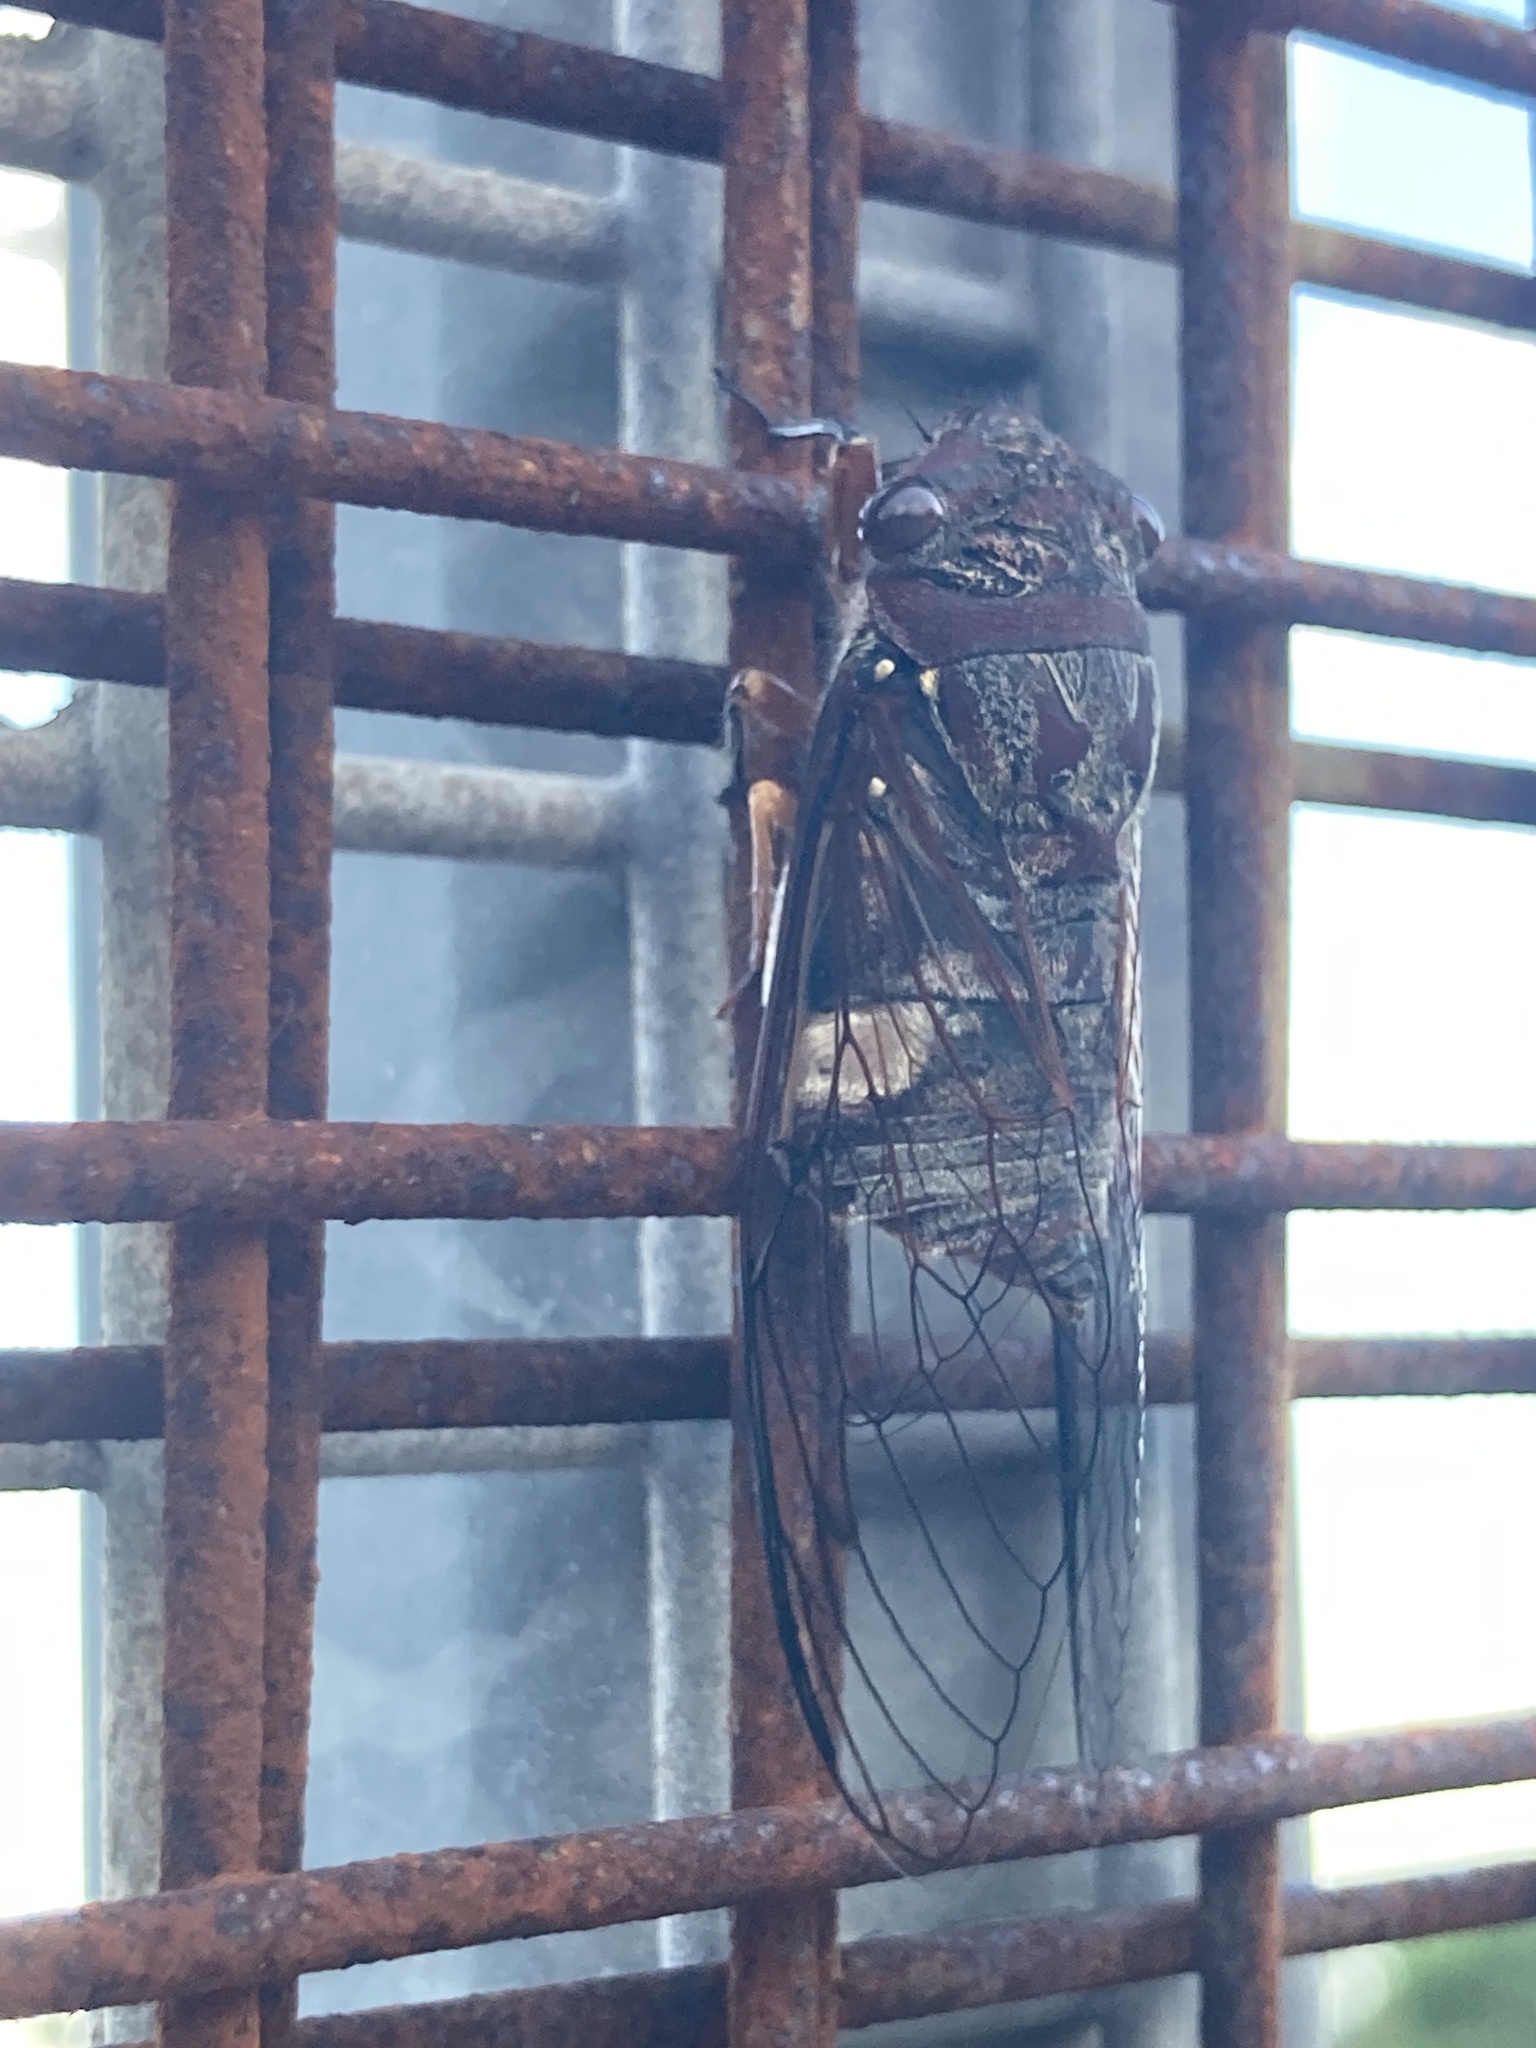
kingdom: Animalia
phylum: Arthropoda
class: Insecta
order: Hemiptera
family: Cicadidae
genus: Psaltoda
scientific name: Psaltoda plaga
